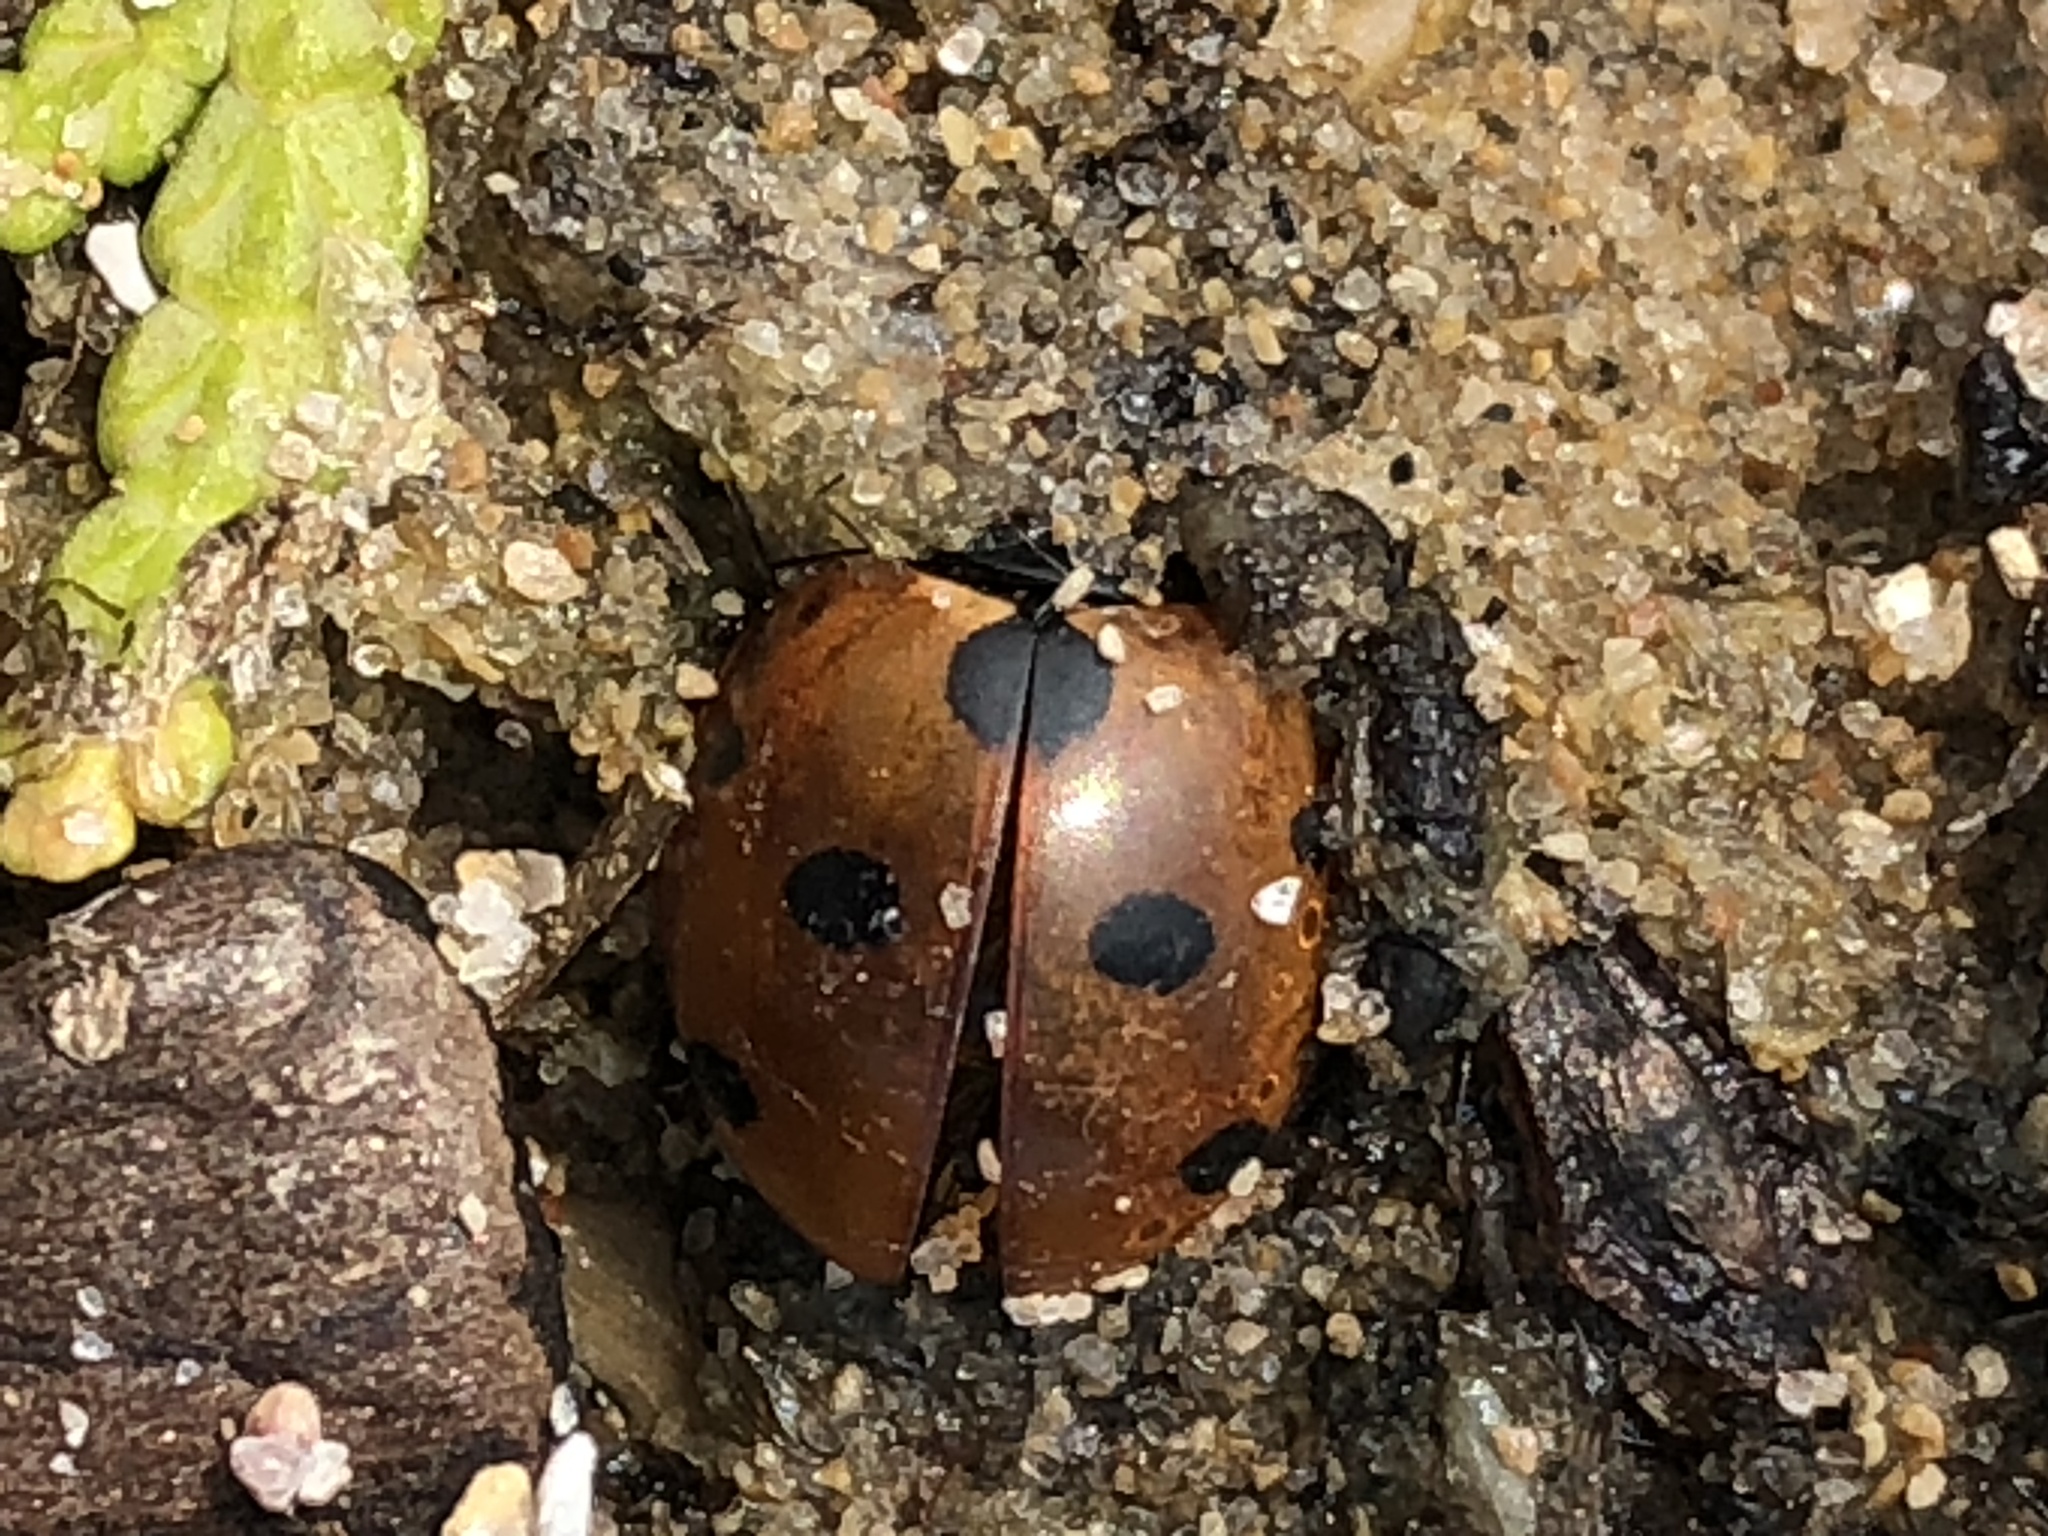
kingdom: Animalia
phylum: Arthropoda
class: Insecta
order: Coleoptera
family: Coccinellidae
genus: Coccinella
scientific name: Coccinella septempunctata
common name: Sevenspotted lady beetle
